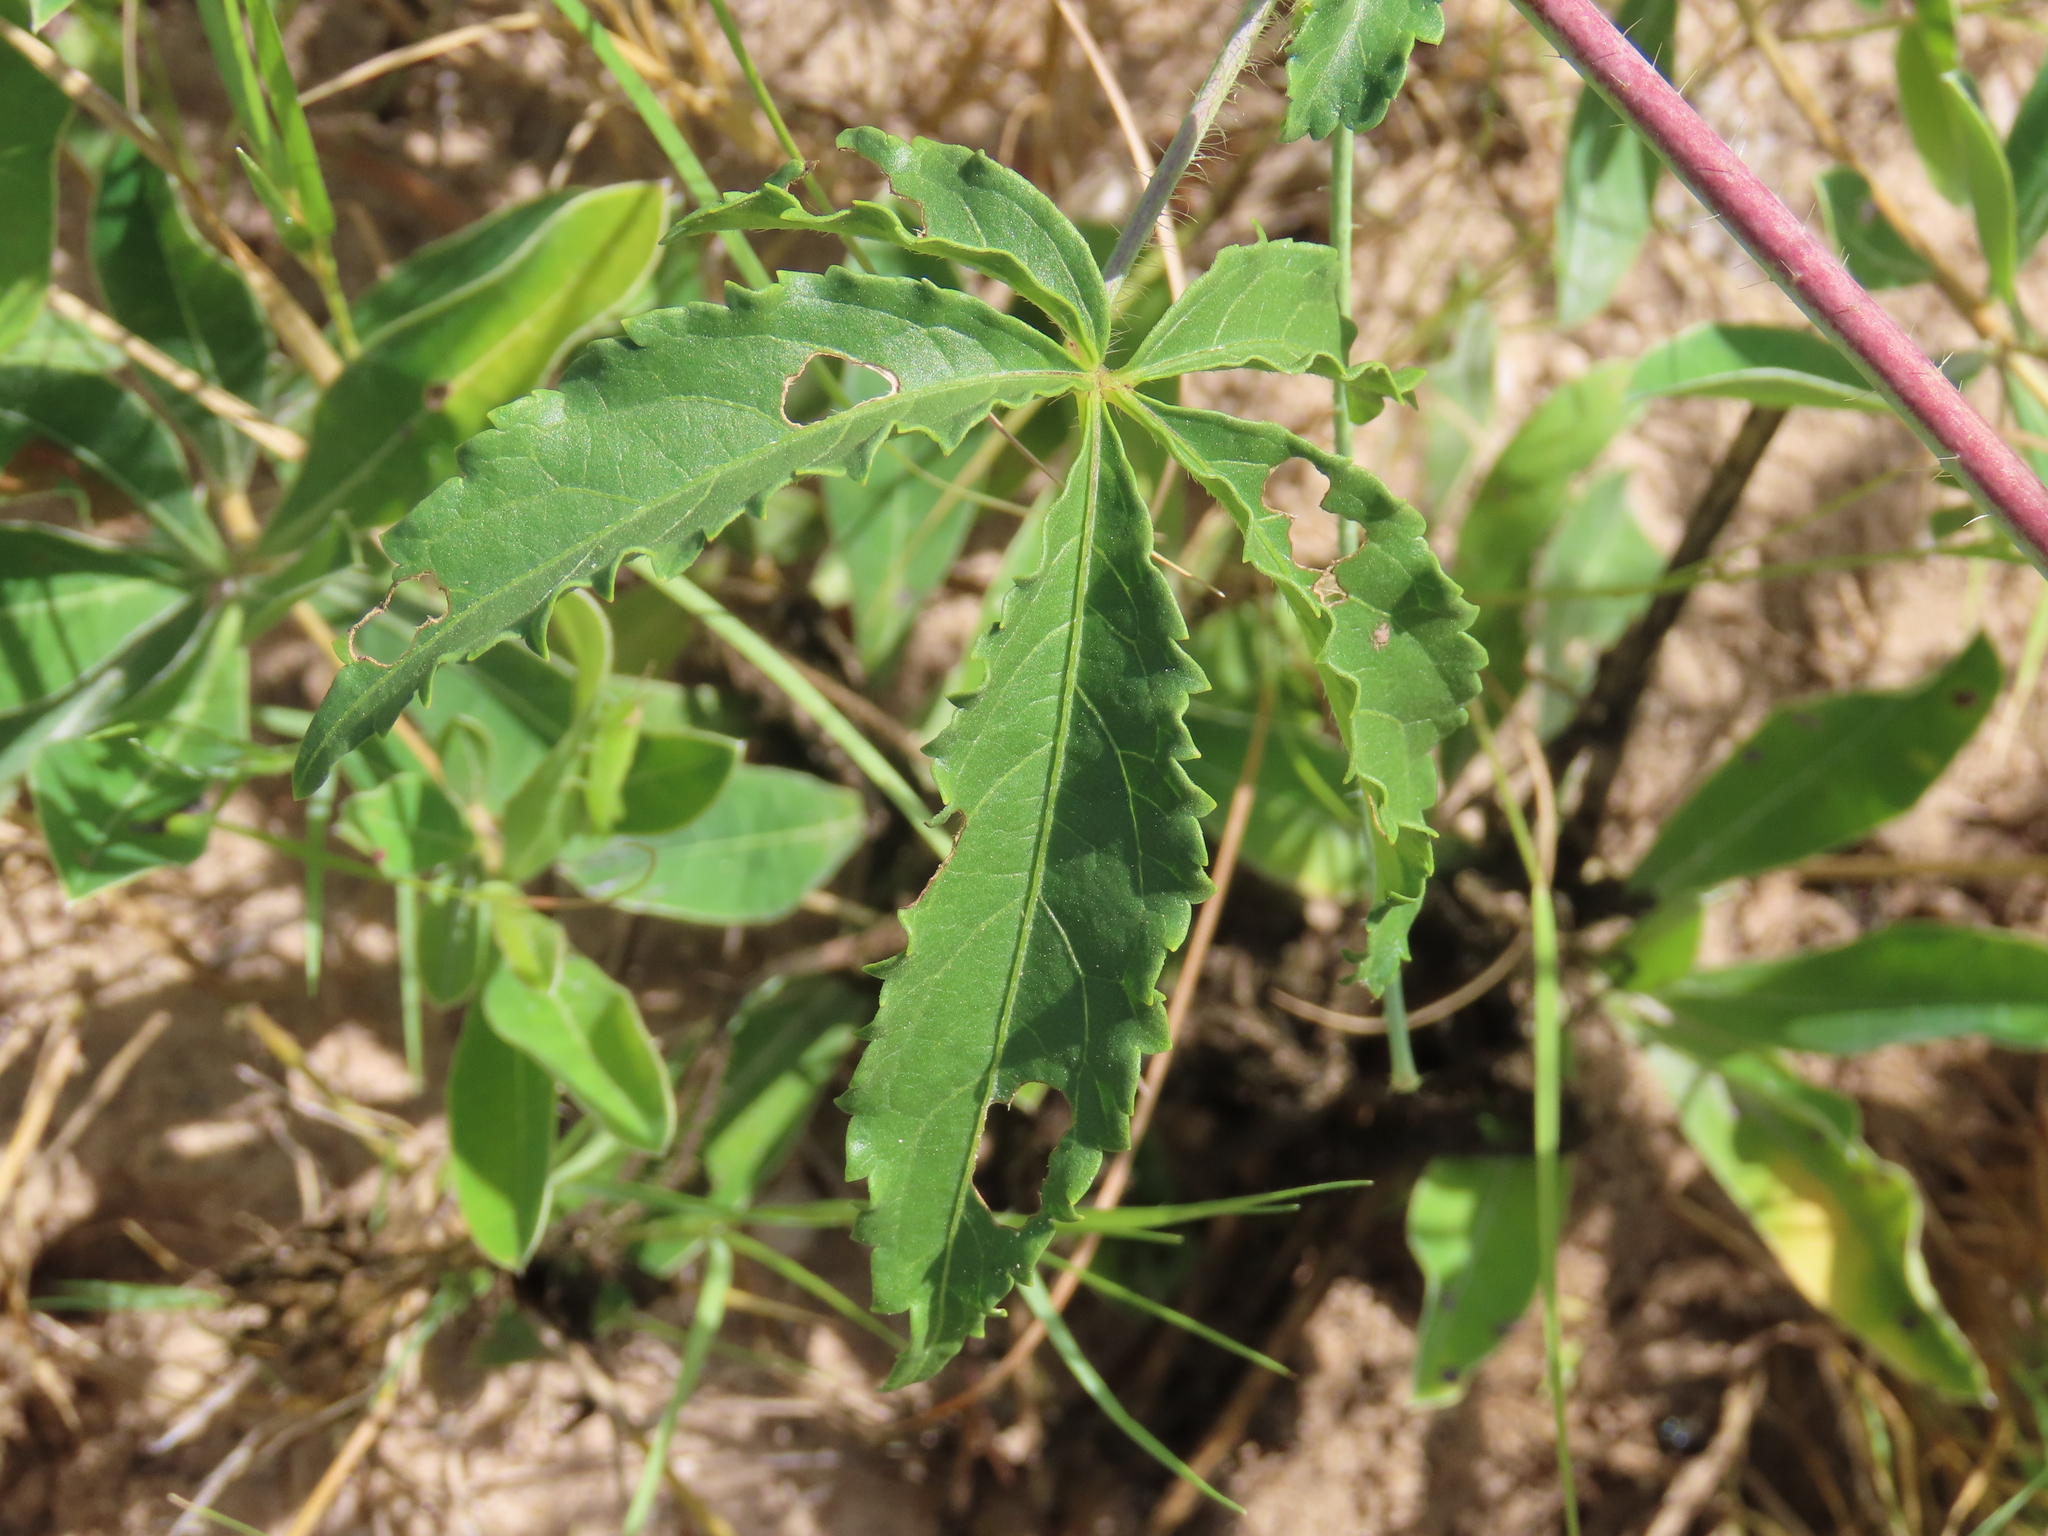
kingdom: Plantae
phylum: Tracheophyta
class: Magnoliopsida
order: Malvales
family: Malvaceae
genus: Hibiscus
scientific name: Hibiscus caesius
